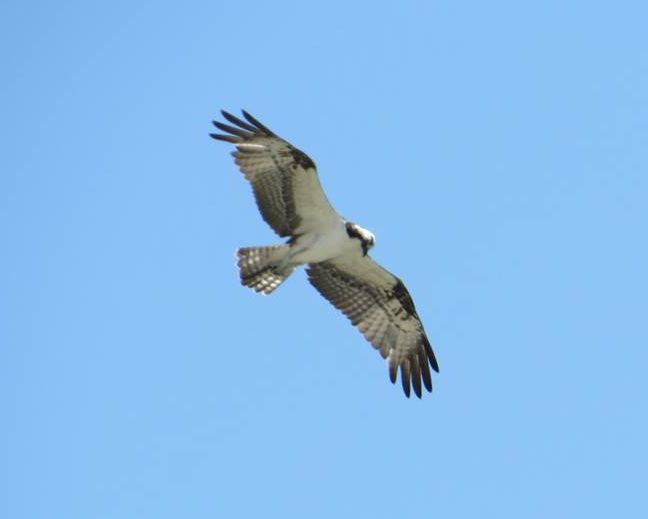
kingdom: Animalia
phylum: Chordata
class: Aves
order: Accipitriformes
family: Pandionidae
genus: Pandion
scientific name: Pandion haliaetus
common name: Osprey
